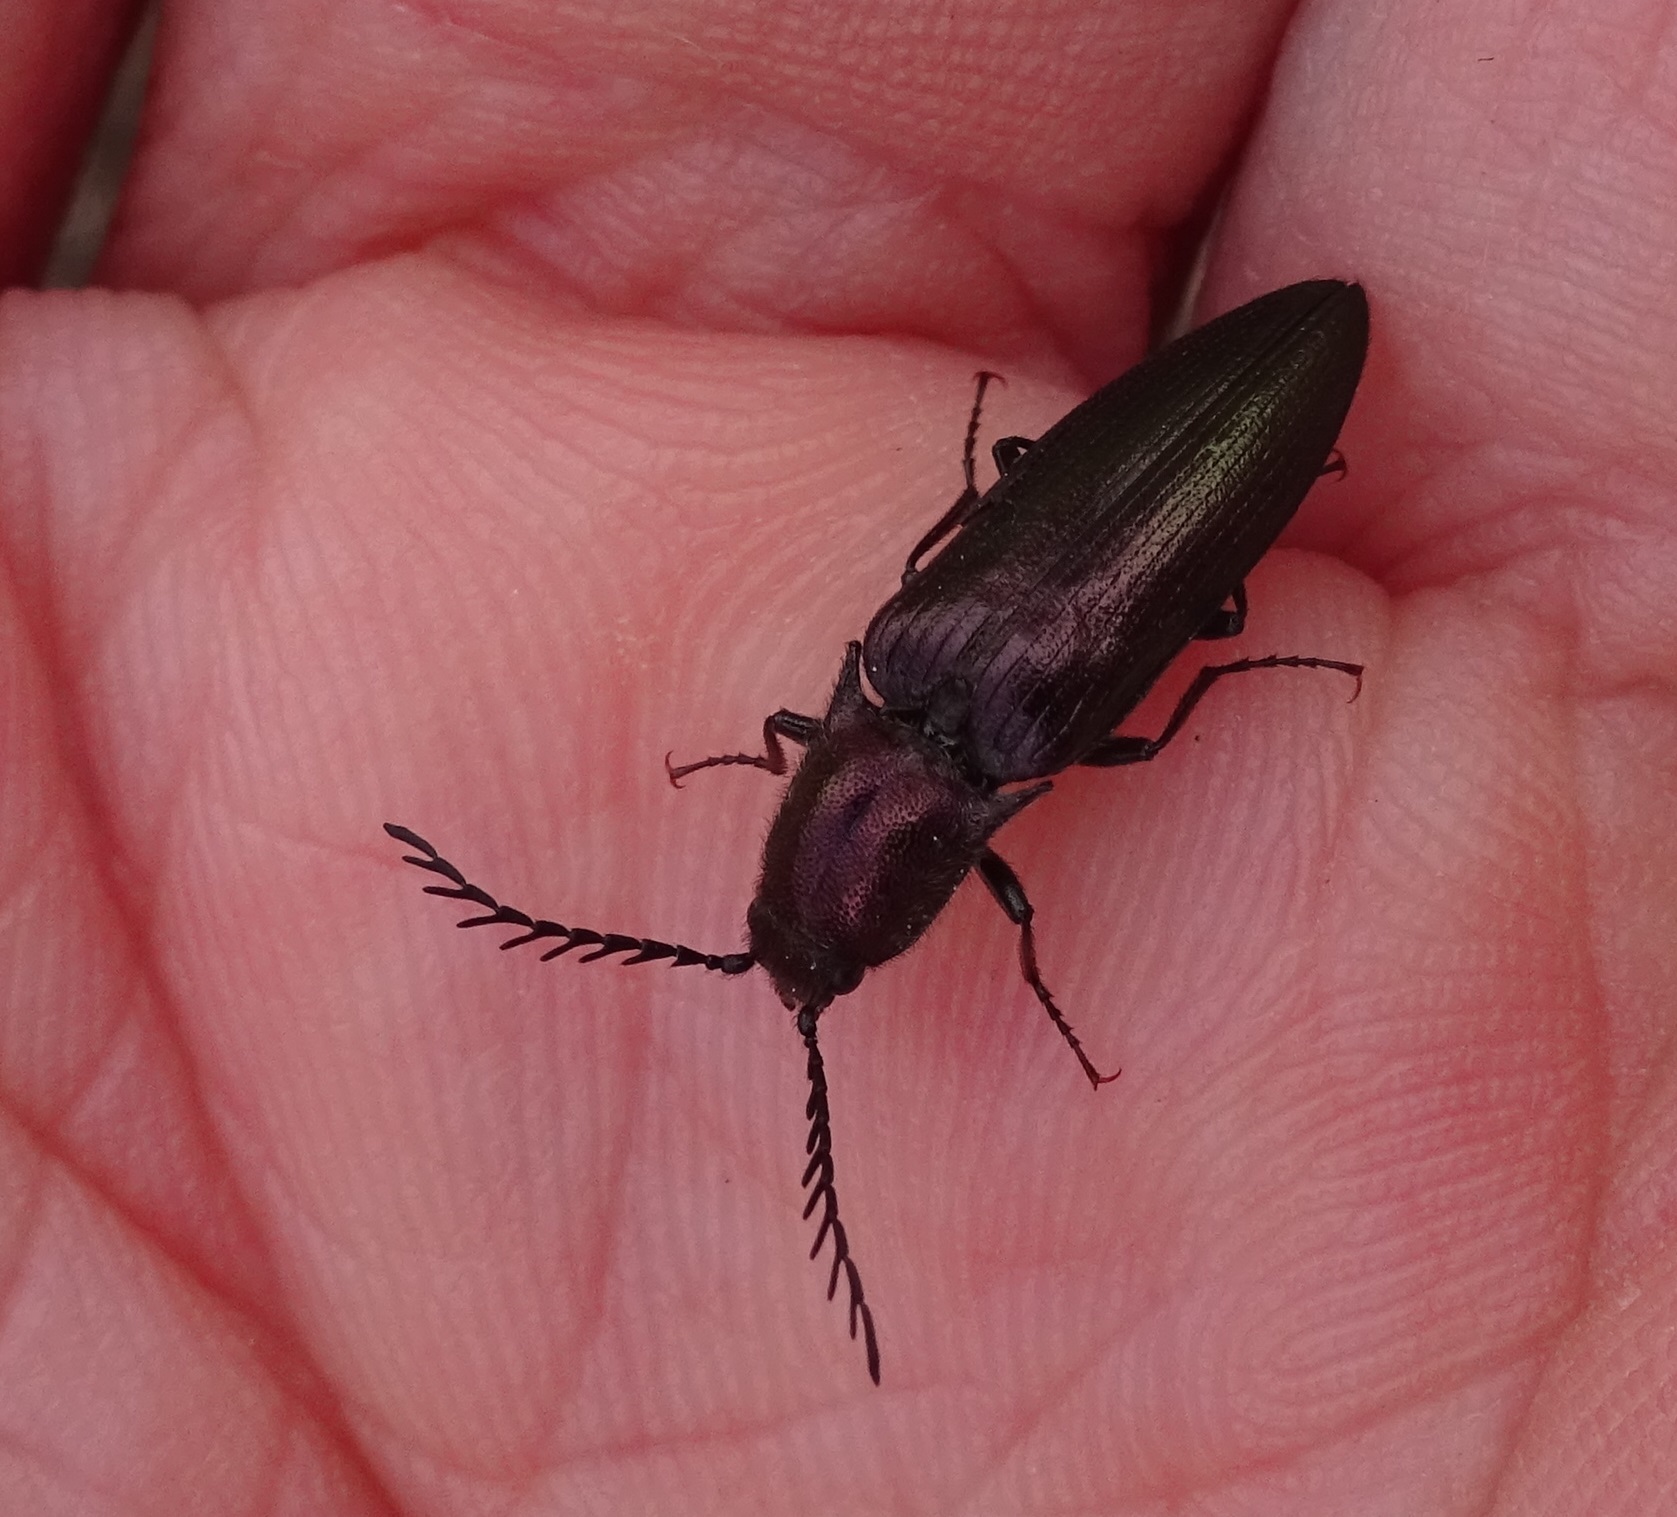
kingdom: Animalia
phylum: Arthropoda
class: Insecta
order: Coleoptera
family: Elateridae
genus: Ctenicera
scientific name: Ctenicera cuprea
